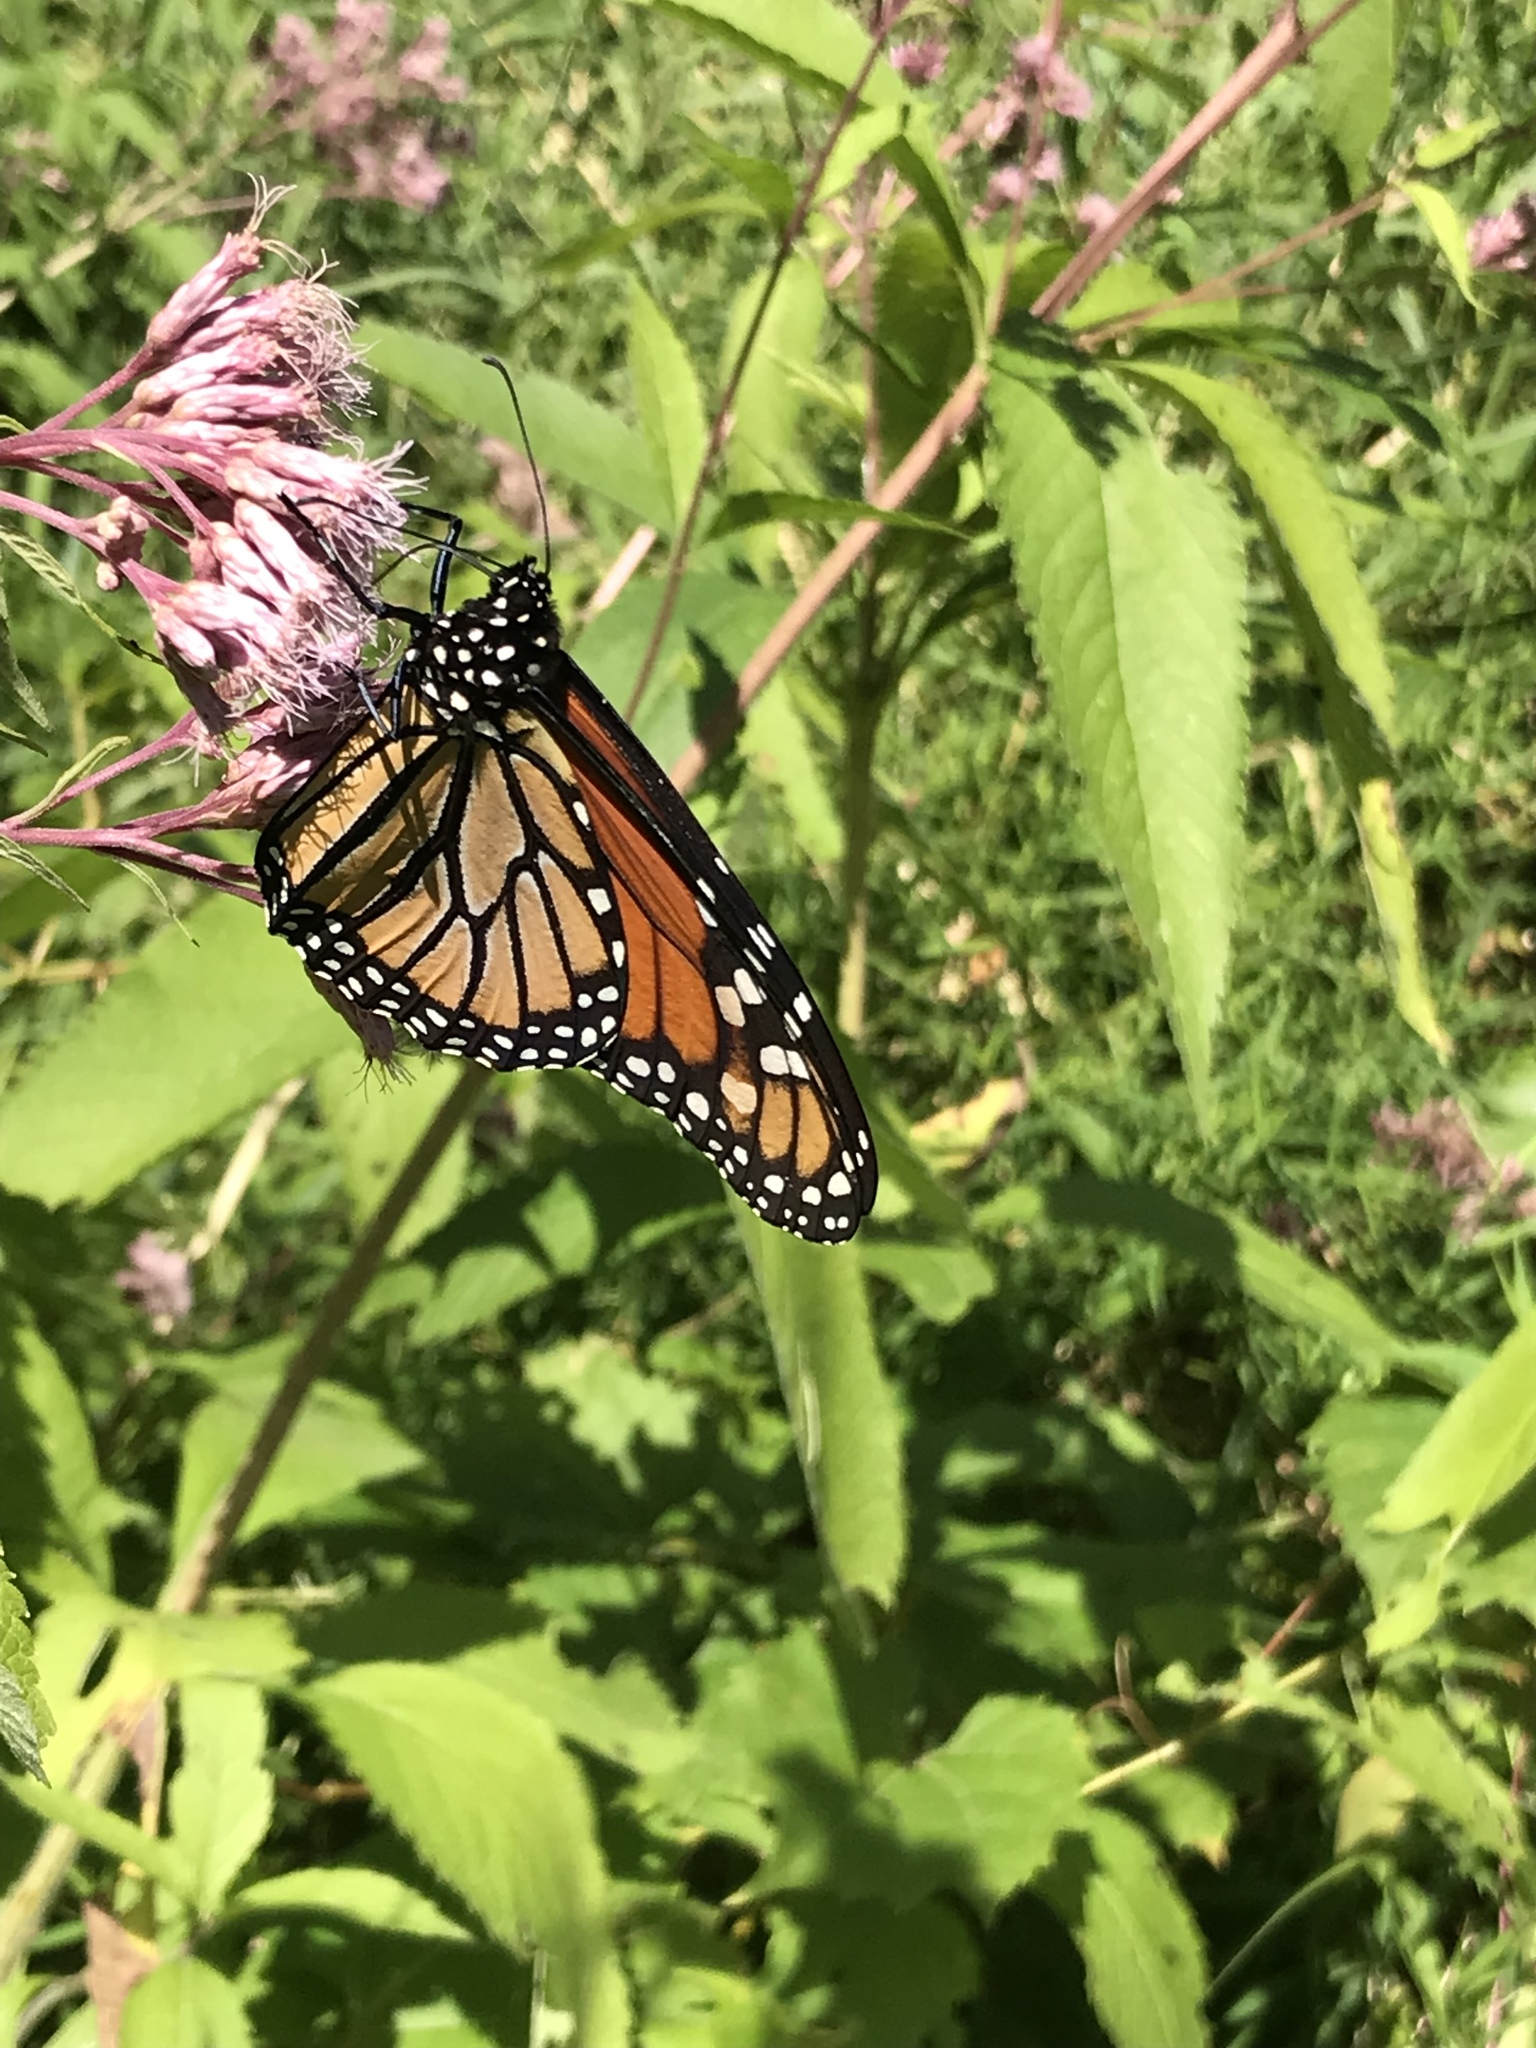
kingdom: Animalia
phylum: Arthropoda
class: Insecta
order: Lepidoptera
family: Nymphalidae
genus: Danaus
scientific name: Danaus plexippus
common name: Monarch
